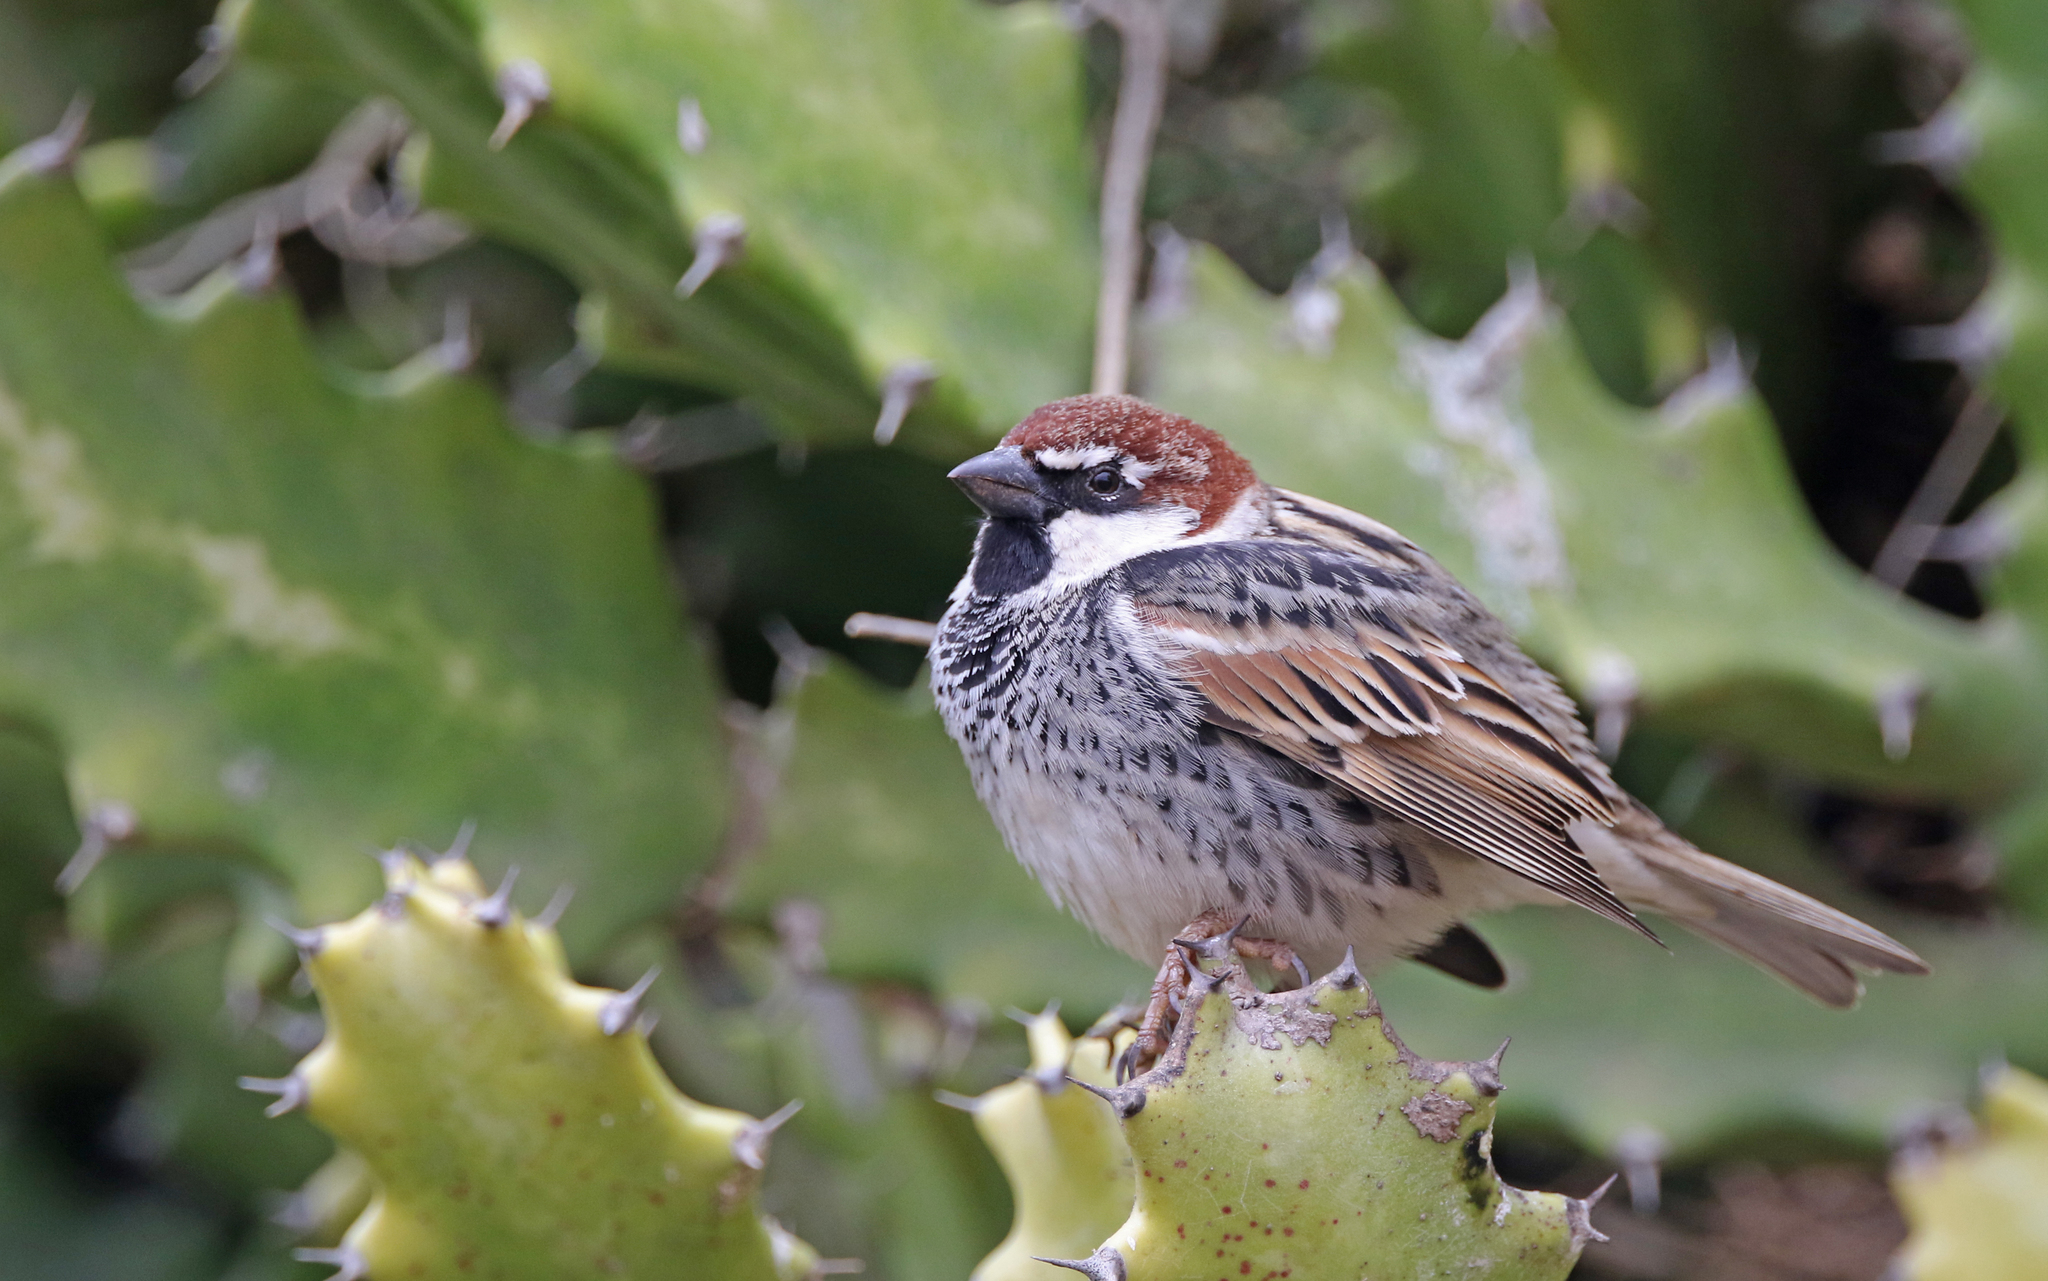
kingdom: Animalia
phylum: Chordata
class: Aves
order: Passeriformes
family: Passeridae
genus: Passer
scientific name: Passer hispaniolensis
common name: Spanish sparrow
